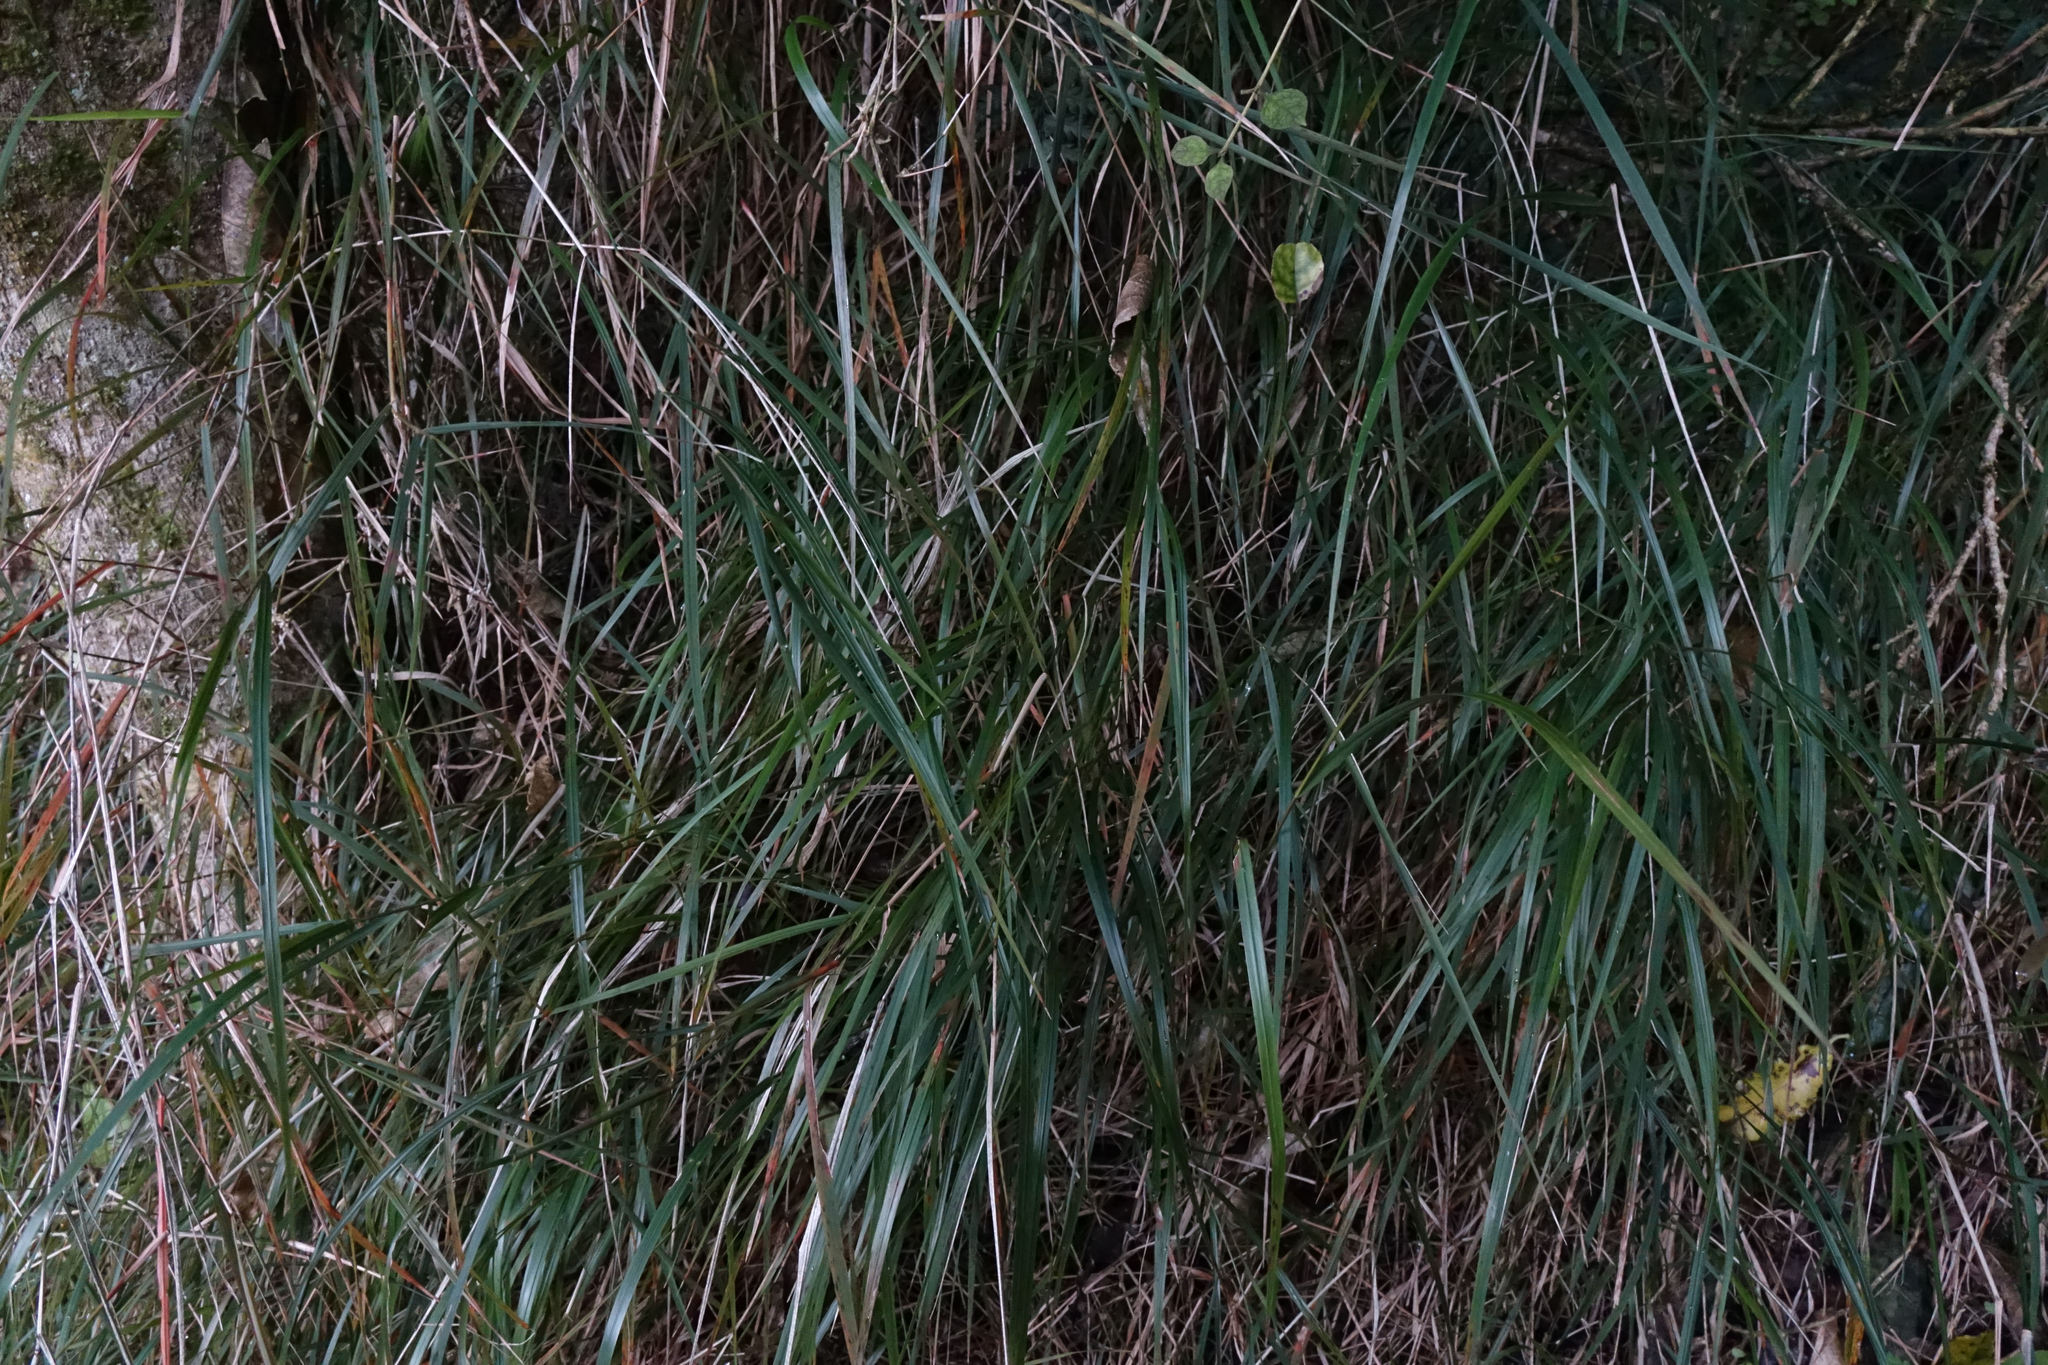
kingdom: Plantae
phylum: Tracheophyta
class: Liliopsida
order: Poales
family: Poaceae
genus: Microlaena
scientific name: Microlaena polynoda
